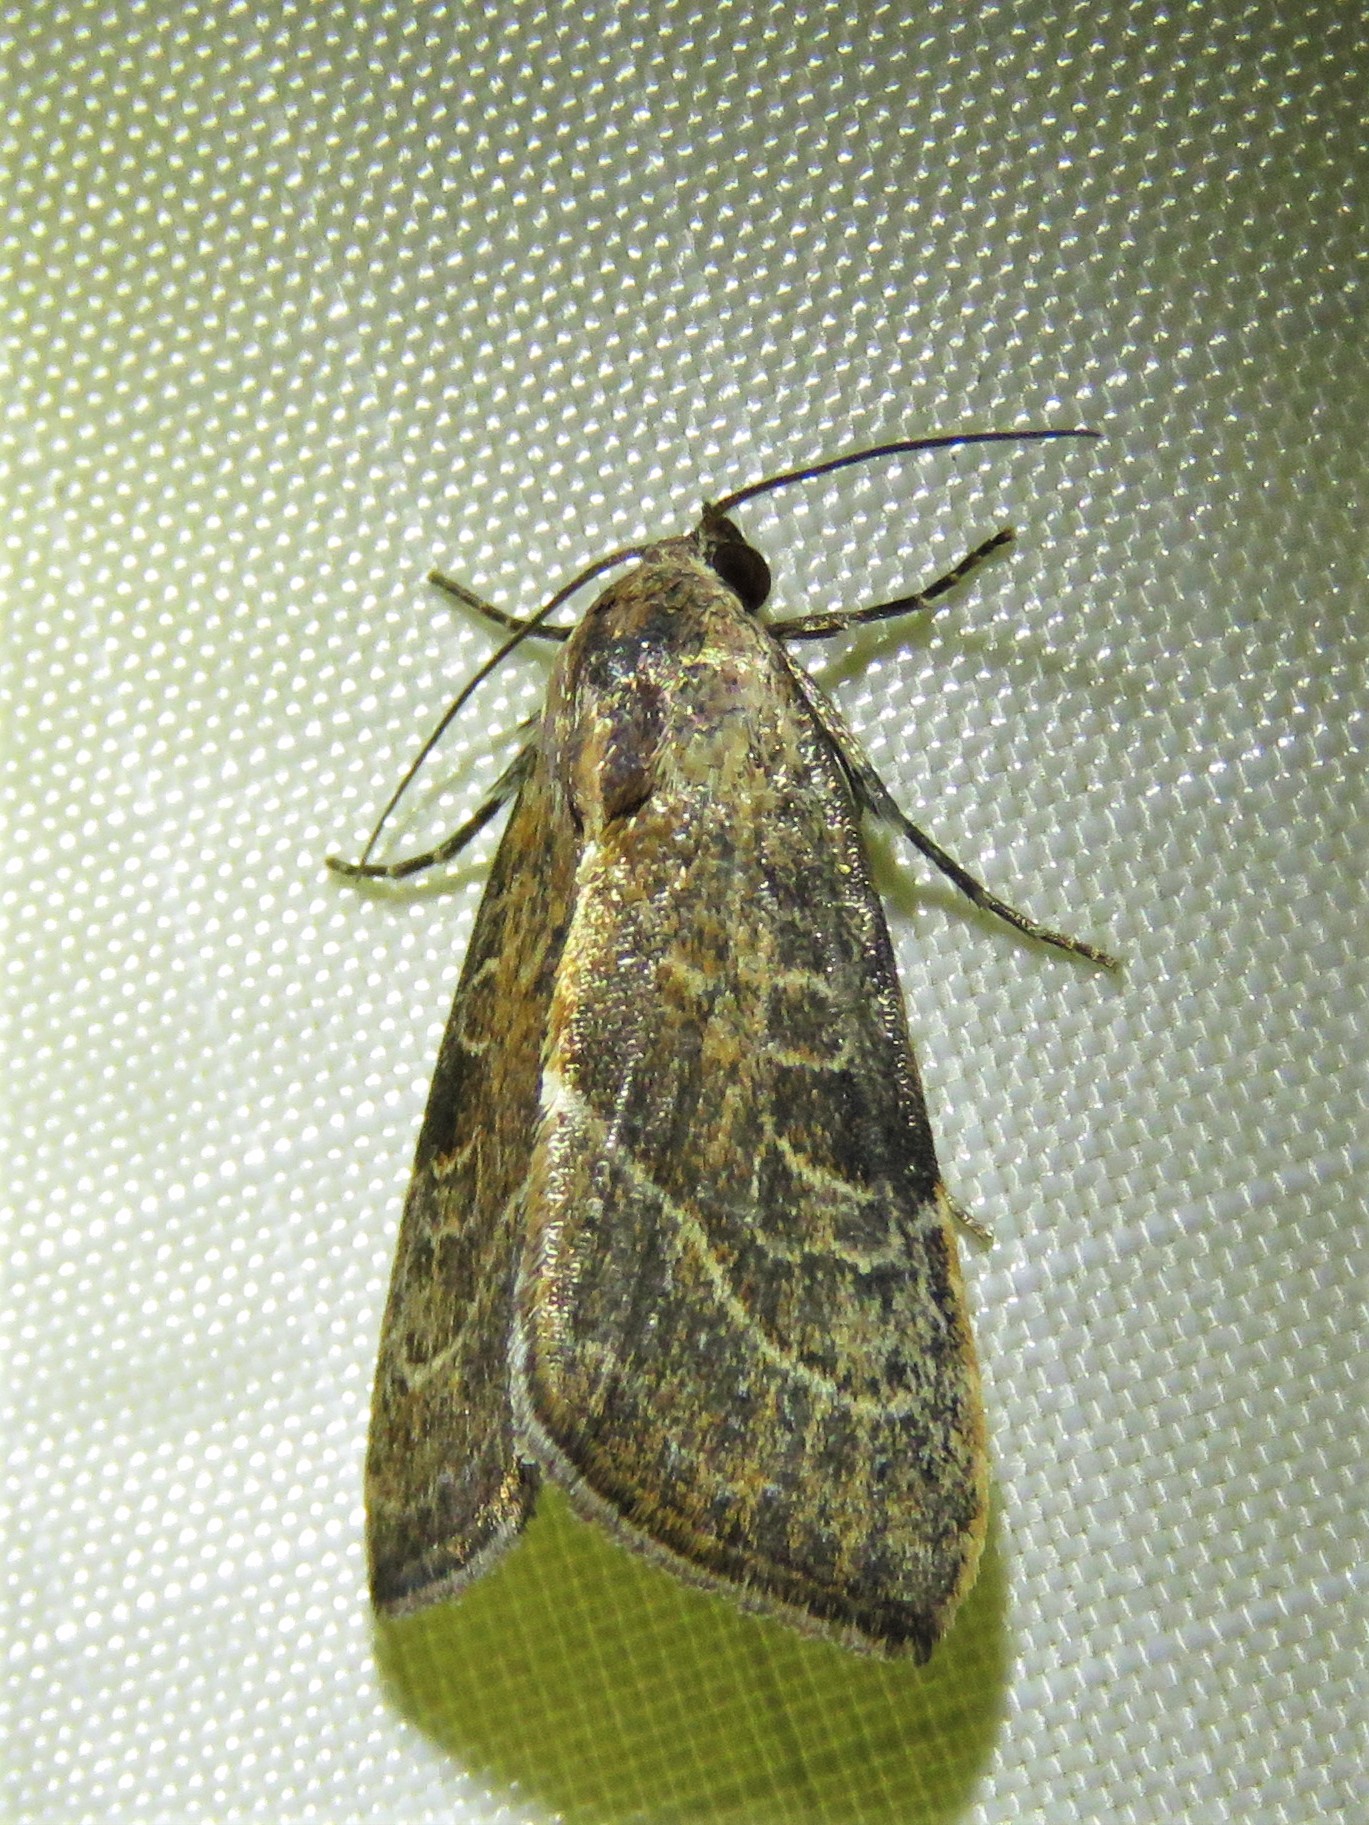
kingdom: Animalia
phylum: Arthropoda
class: Insecta
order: Lepidoptera
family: Noctuidae
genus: Galgula
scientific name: Galgula partita
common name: Wedgeling
